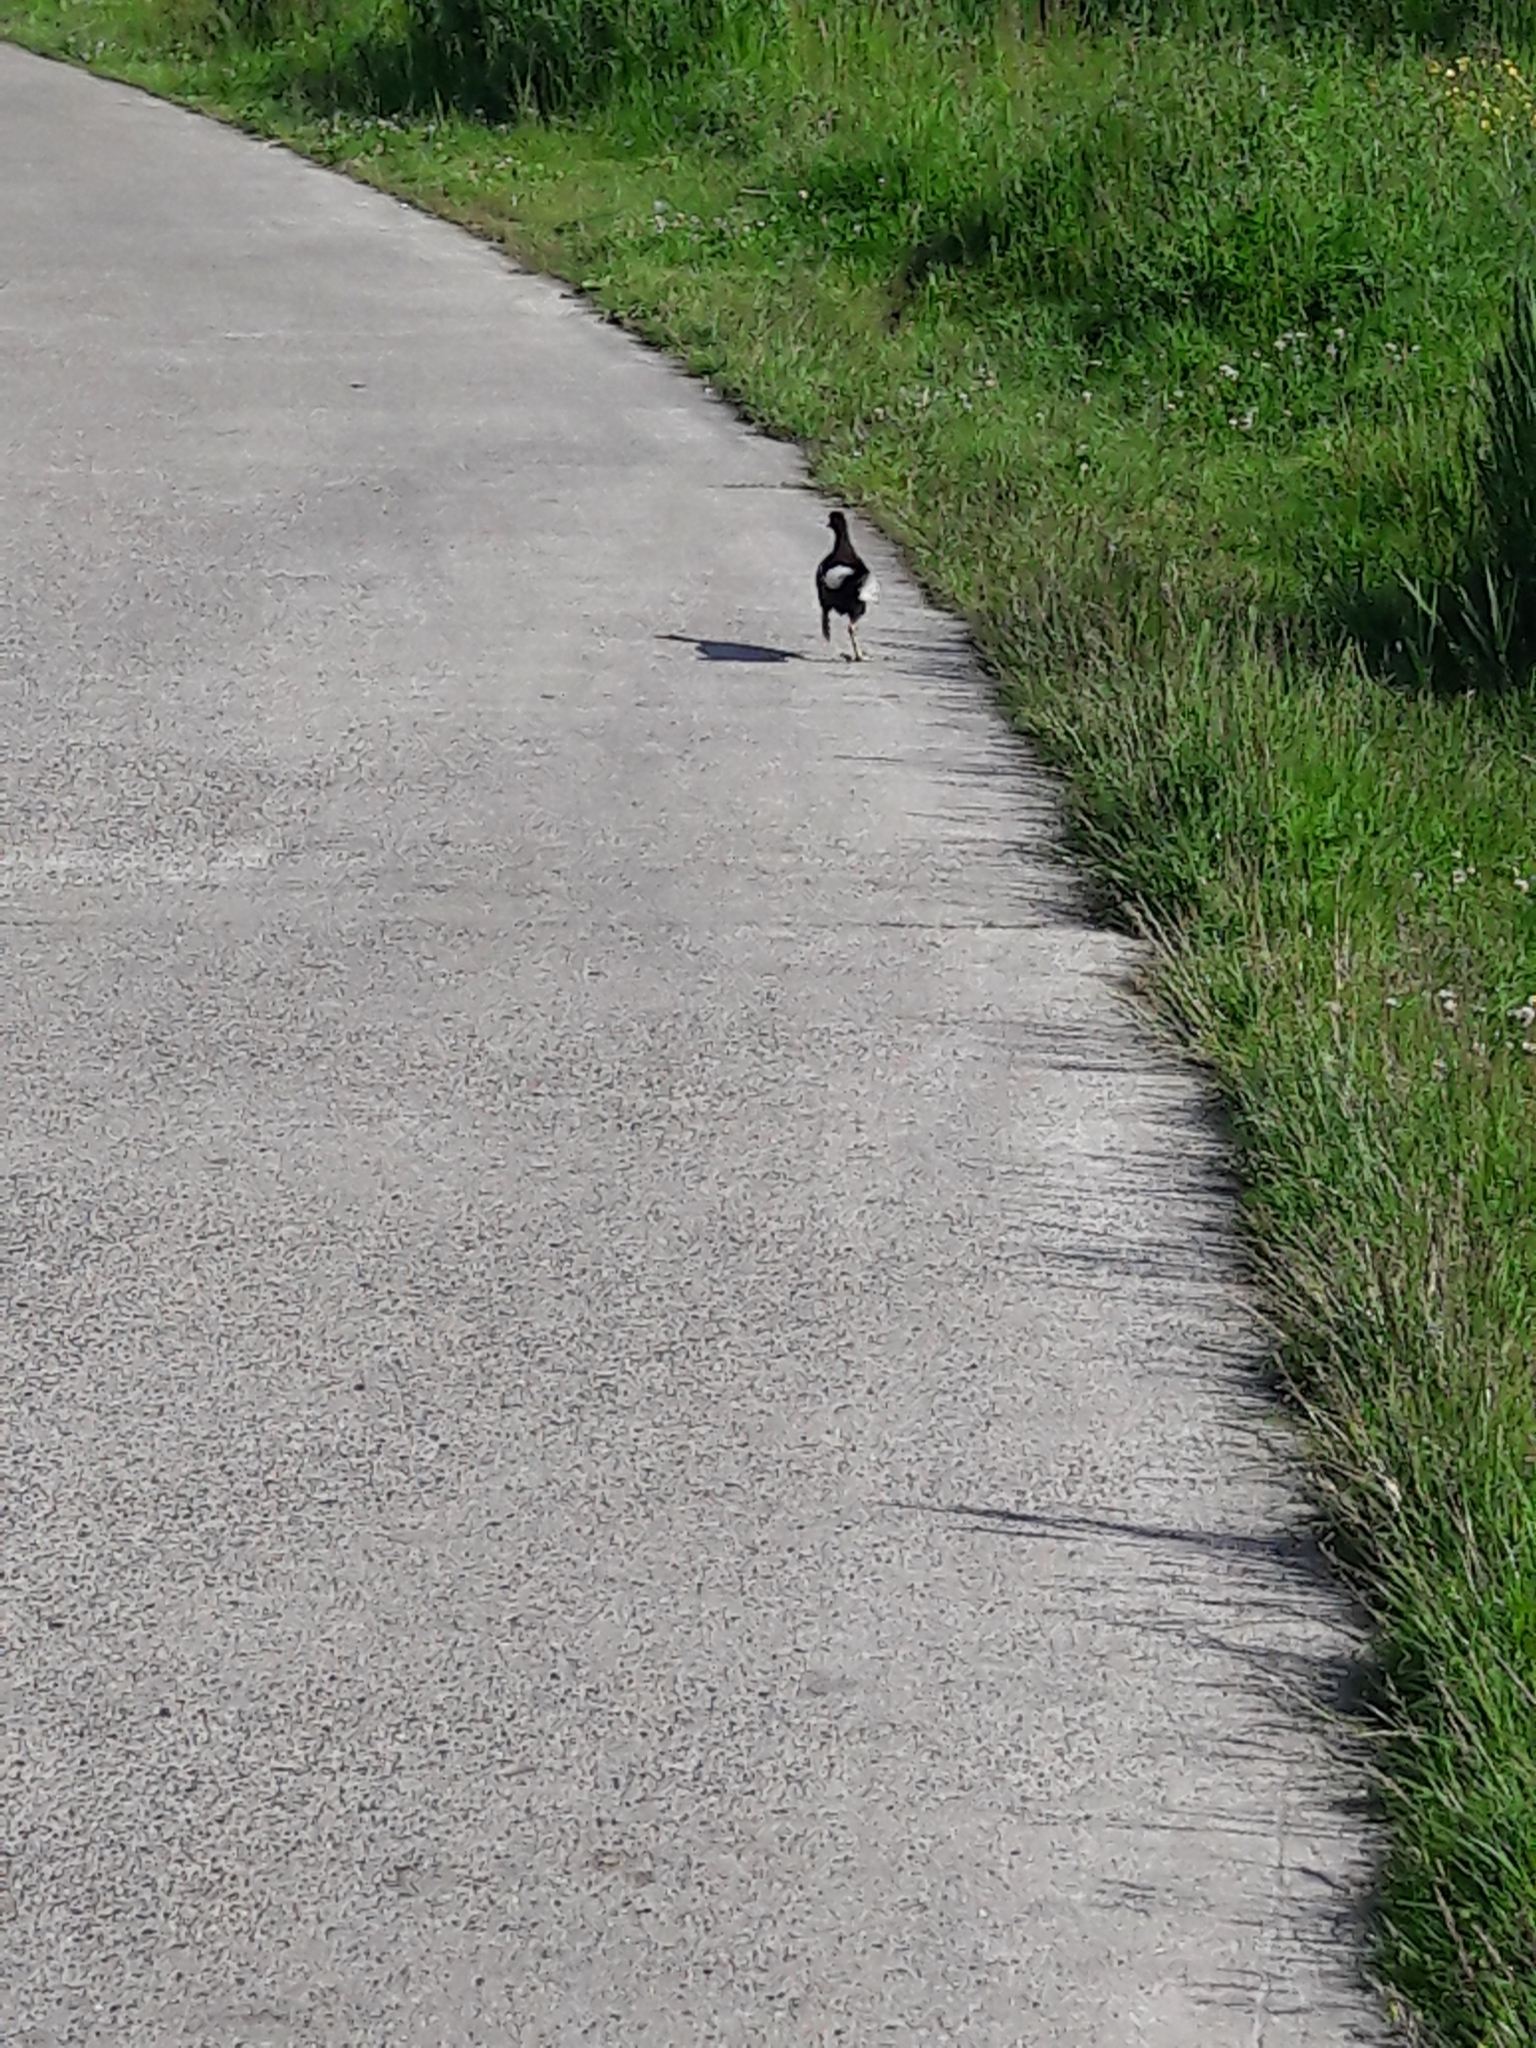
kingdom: Animalia
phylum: Chordata
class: Aves
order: Gruiformes
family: Rallidae
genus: Gallinula
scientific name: Gallinula chloropus
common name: Common moorhen
